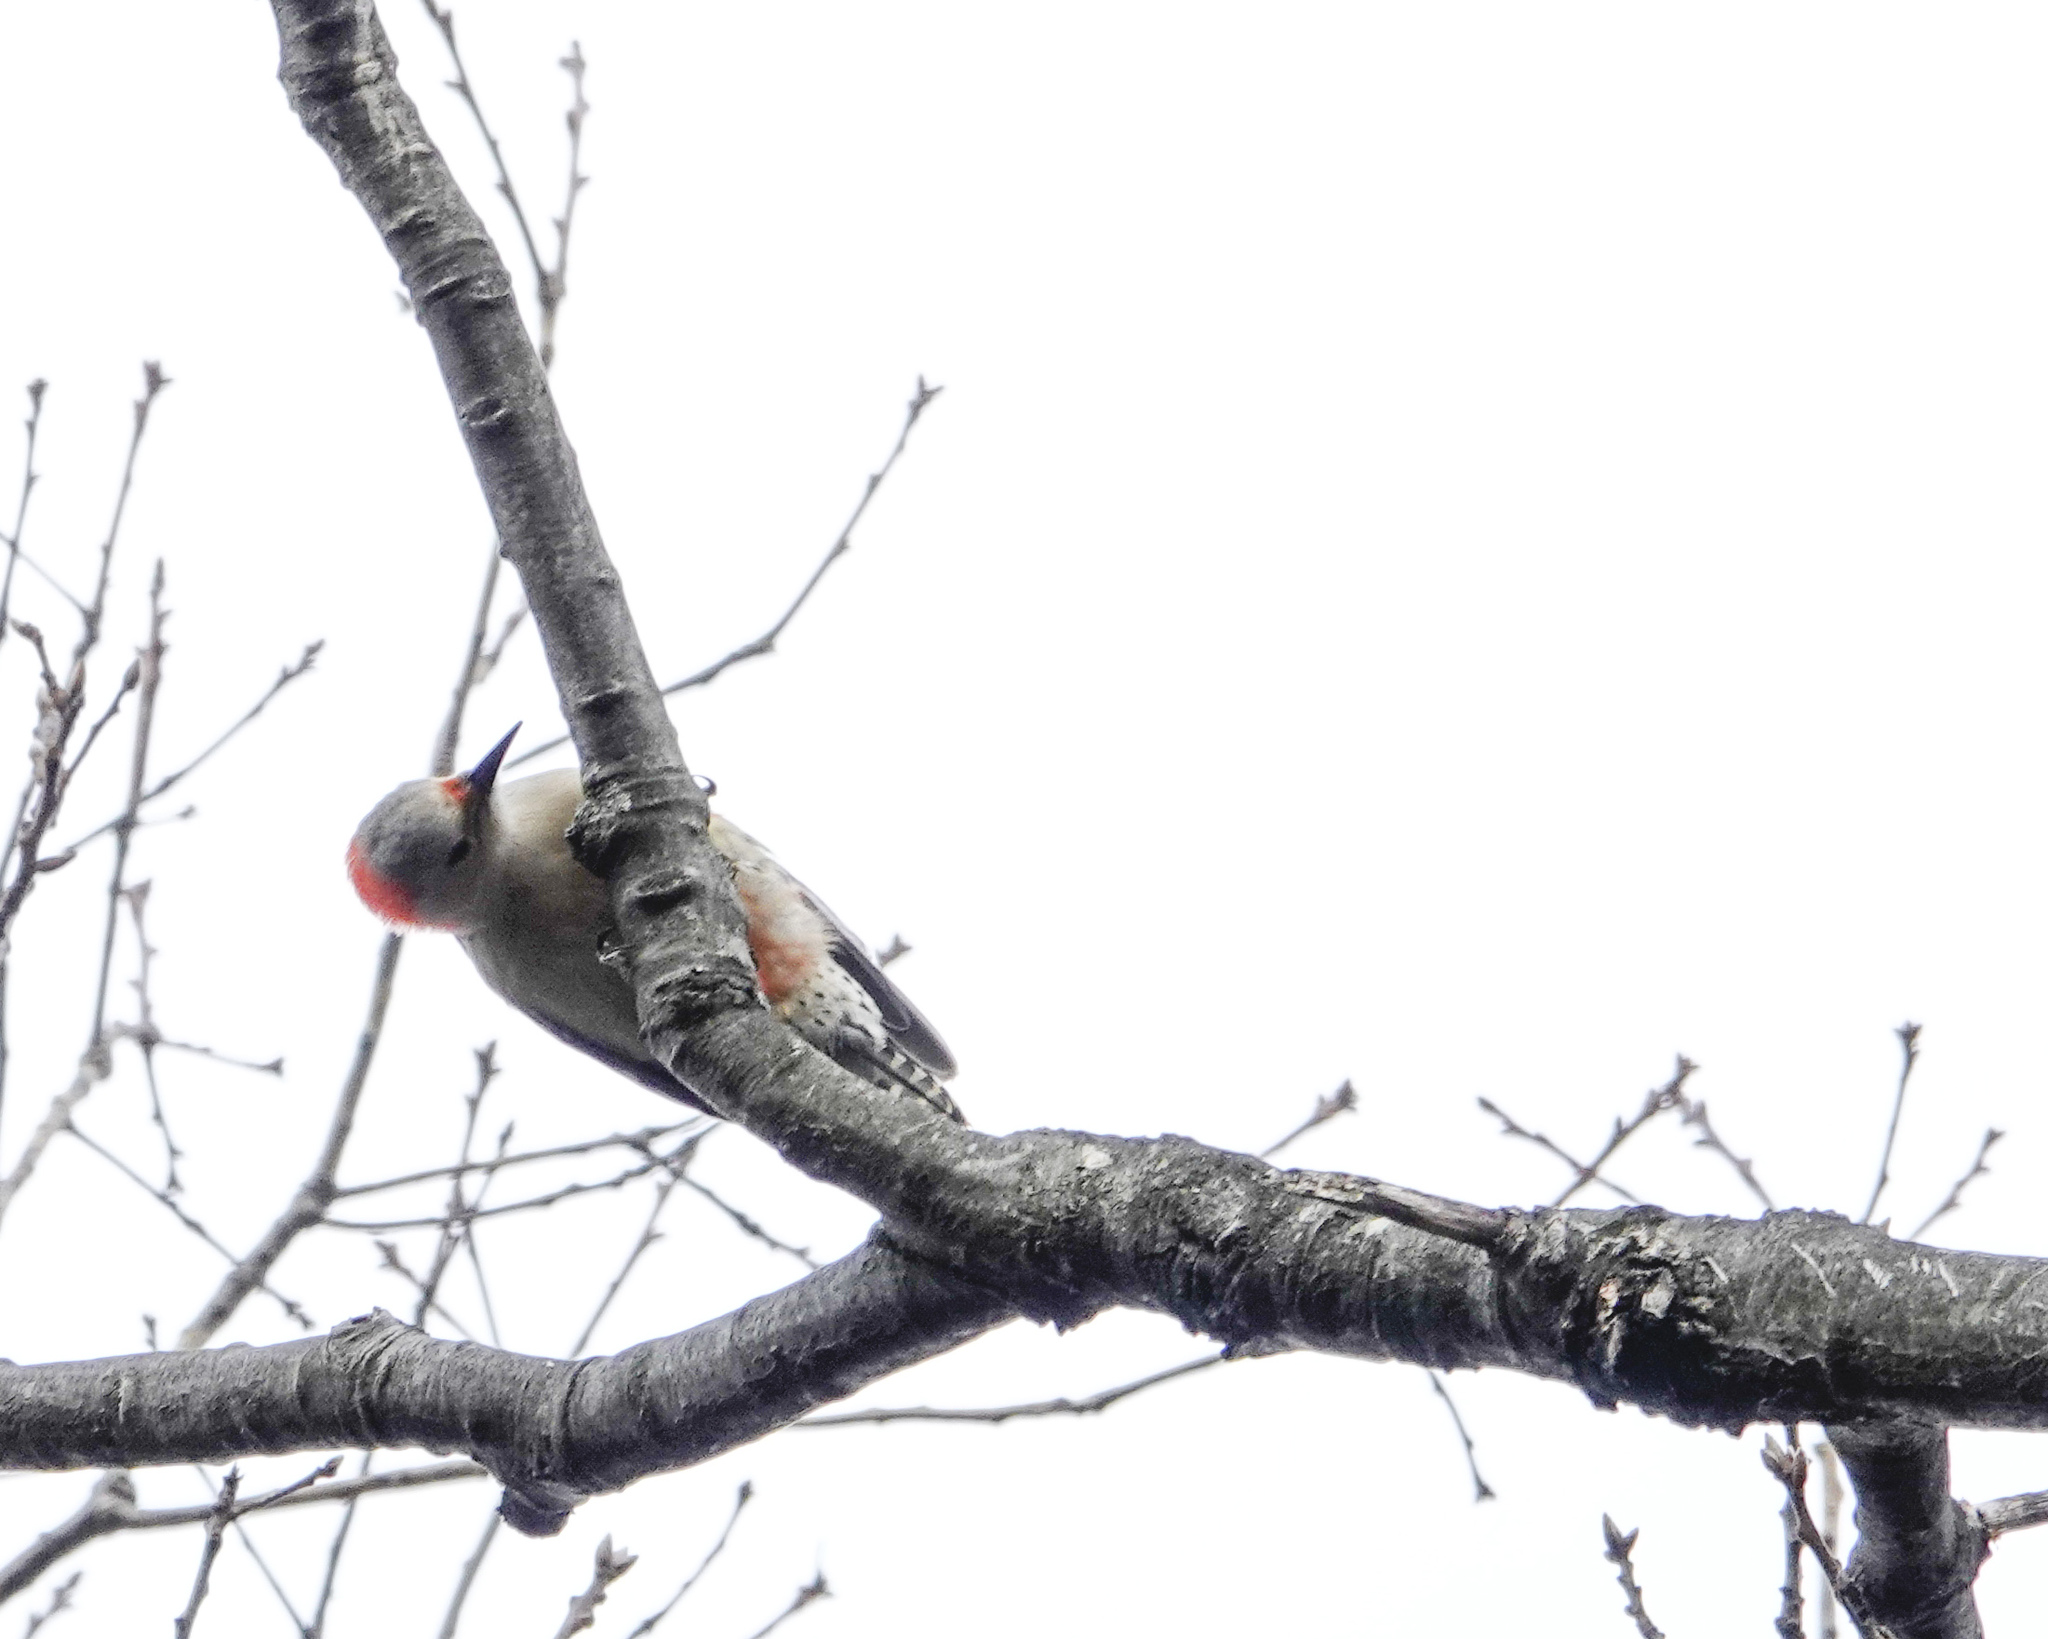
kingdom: Animalia
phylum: Chordata
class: Aves
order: Piciformes
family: Picidae
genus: Melanerpes
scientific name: Melanerpes carolinus
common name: Red-bellied woodpecker
